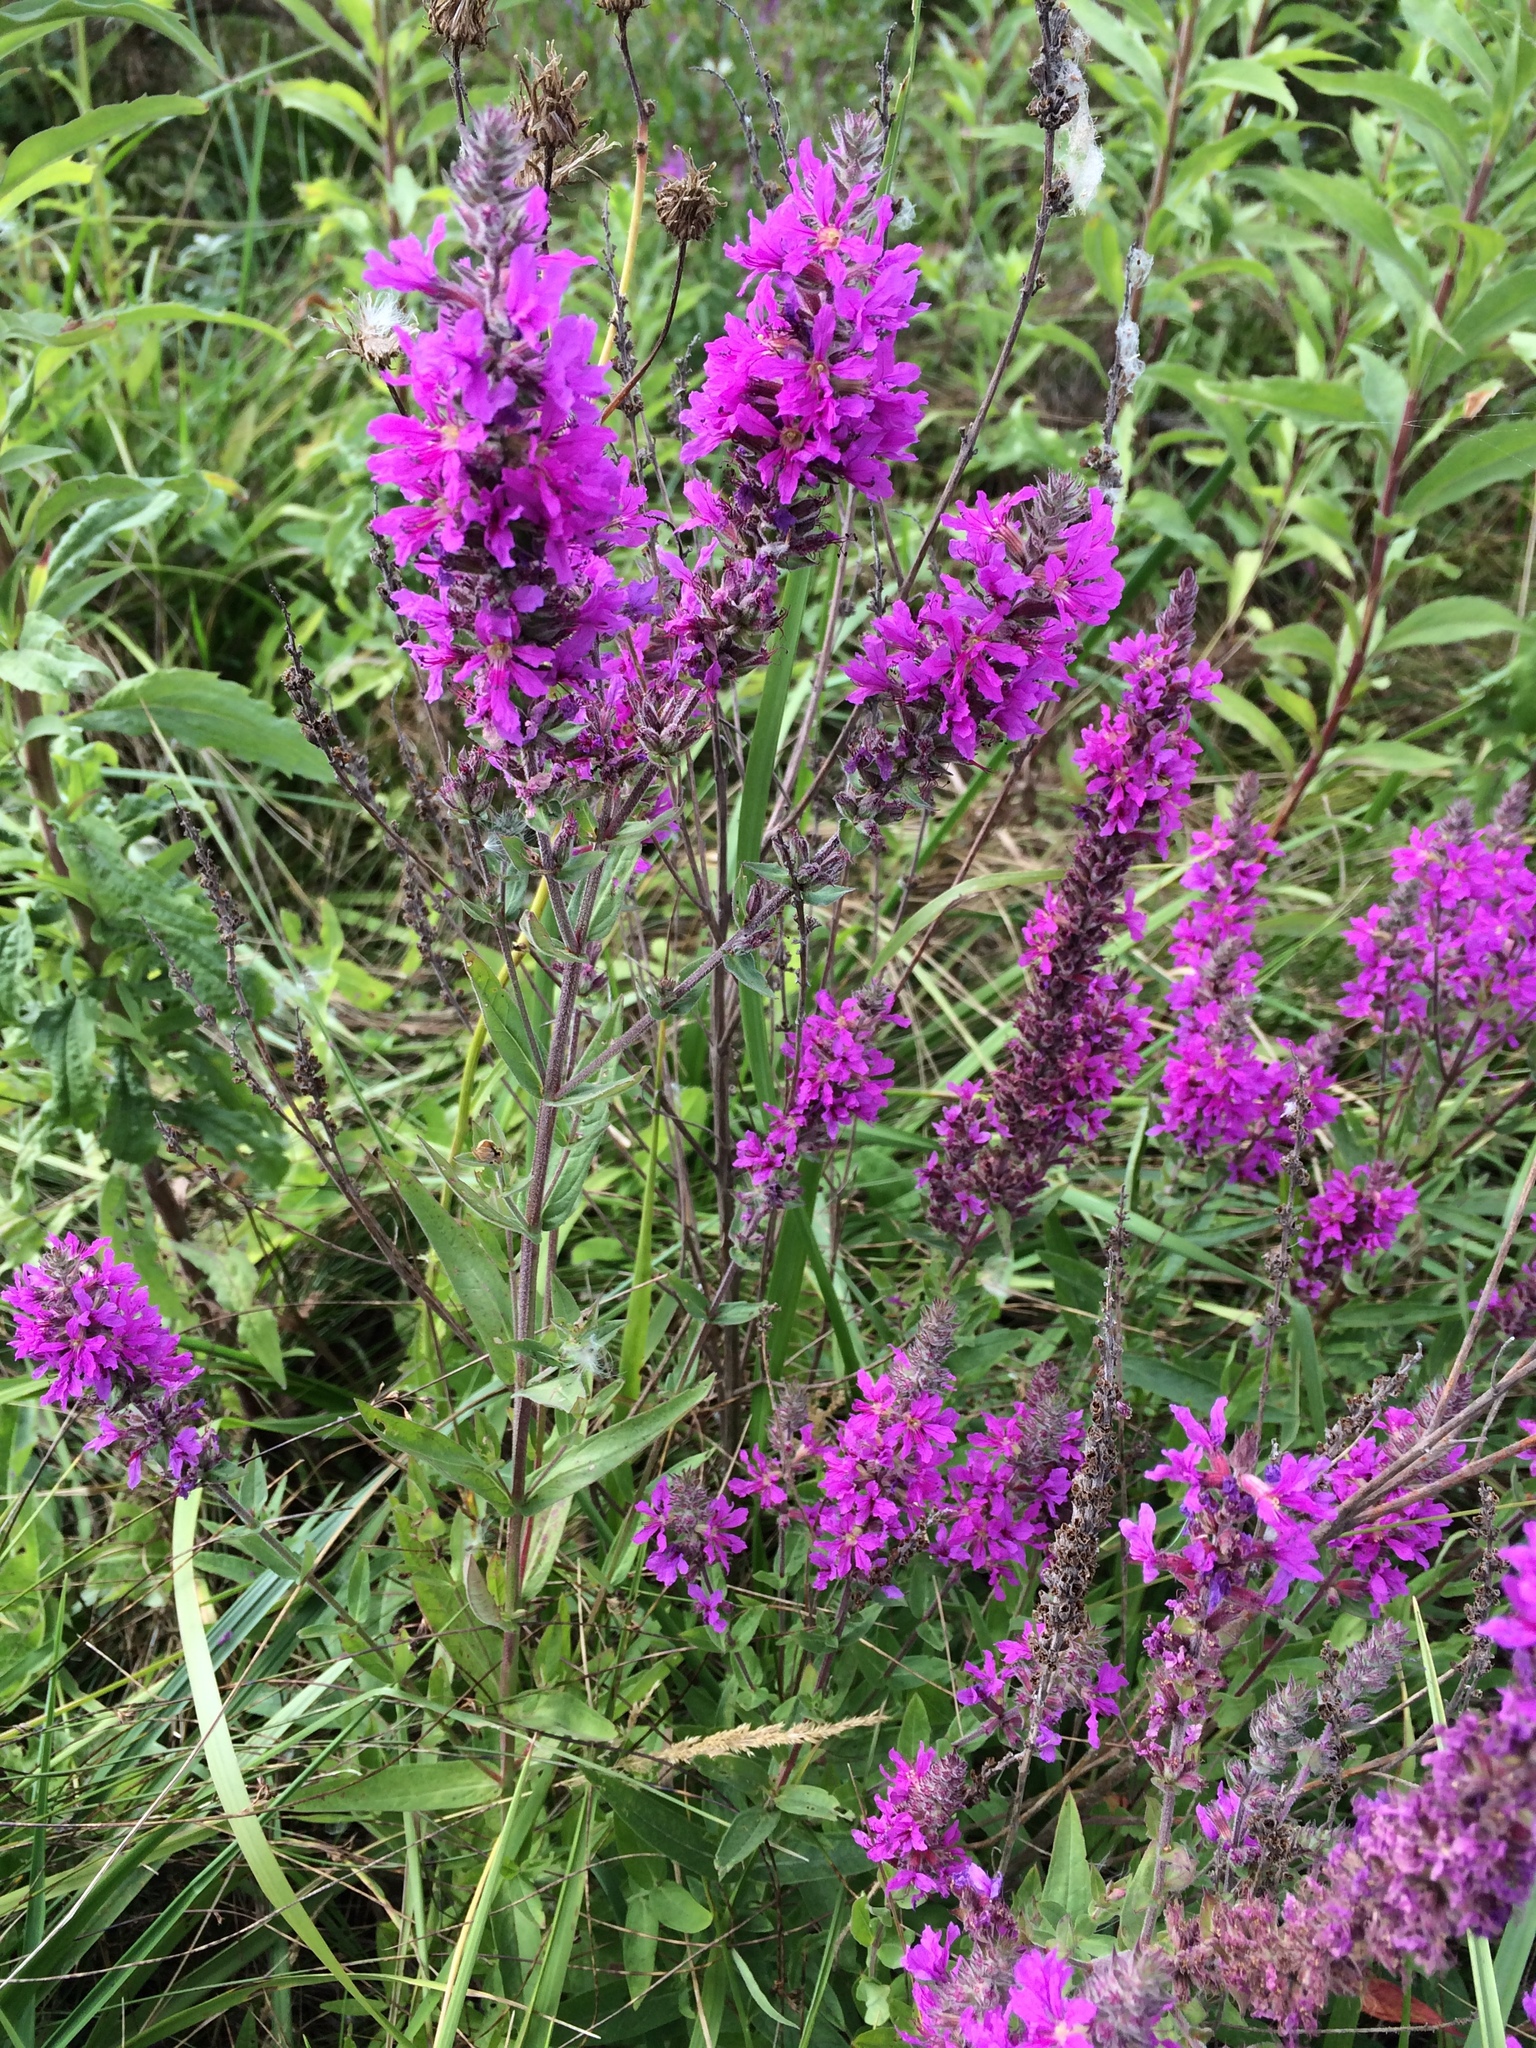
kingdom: Plantae
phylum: Tracheophyta
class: Magnoliopsida
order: Myrtales
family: Lythraceae
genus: Lythrum
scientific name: Lythrum salicaria
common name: Purple loosestrife
